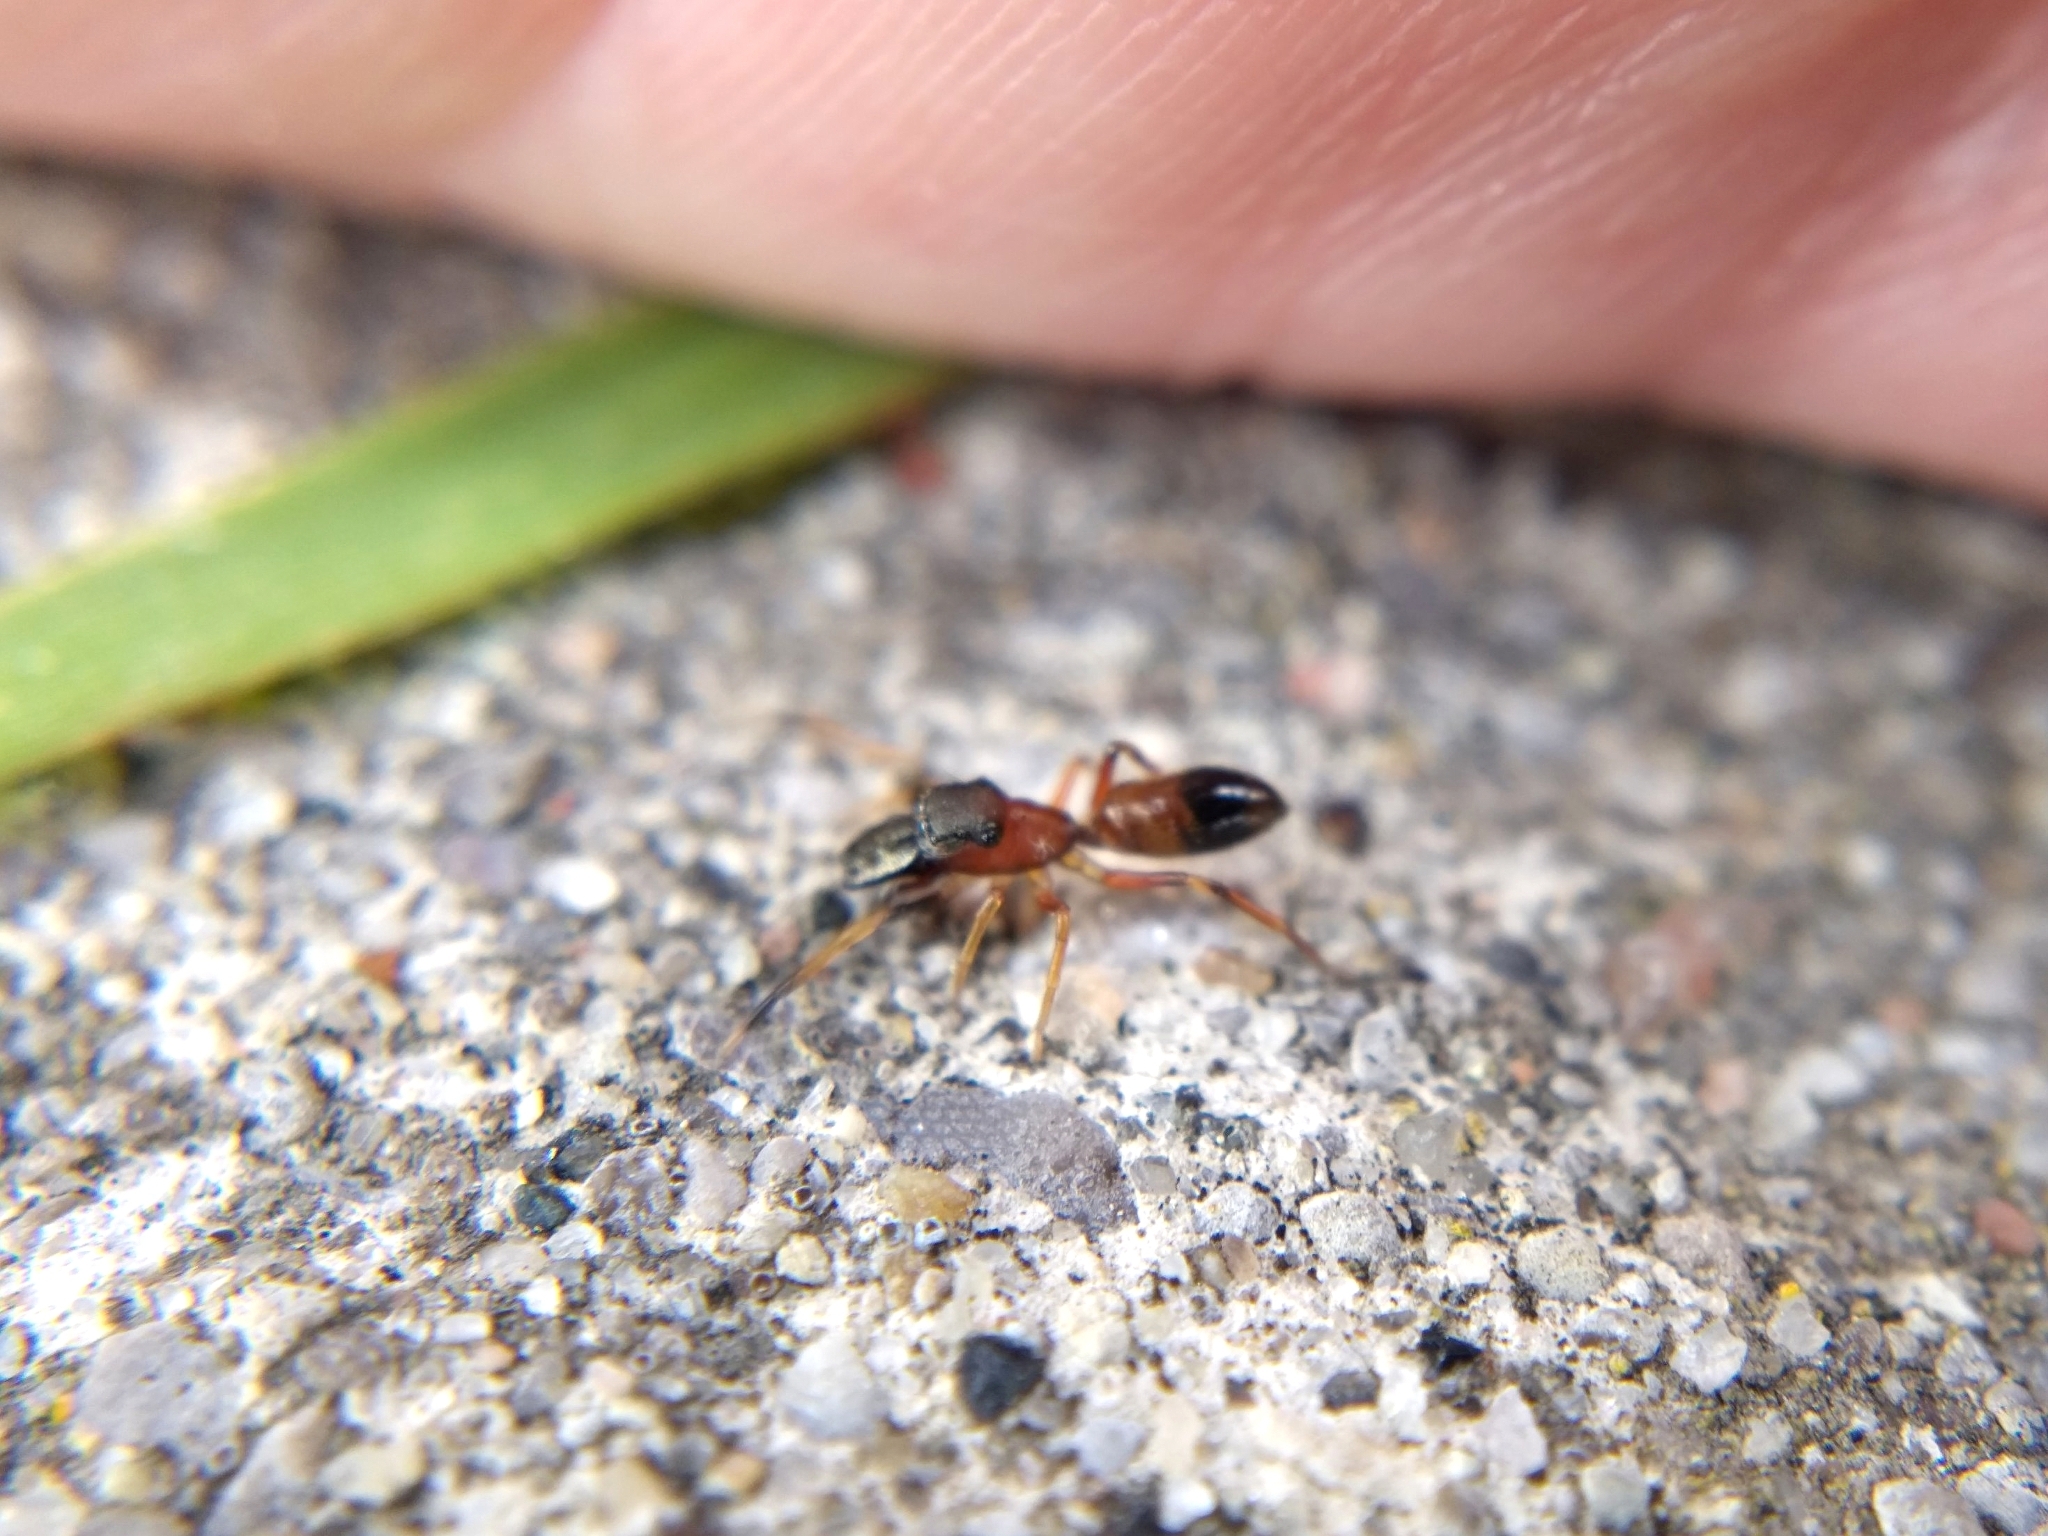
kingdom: Animalia
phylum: Arthropoda
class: Arachnida
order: Araneae
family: Salticidae
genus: Myrmarachne
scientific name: Myrmarachne formicaria
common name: Ant mimic jumping spider
